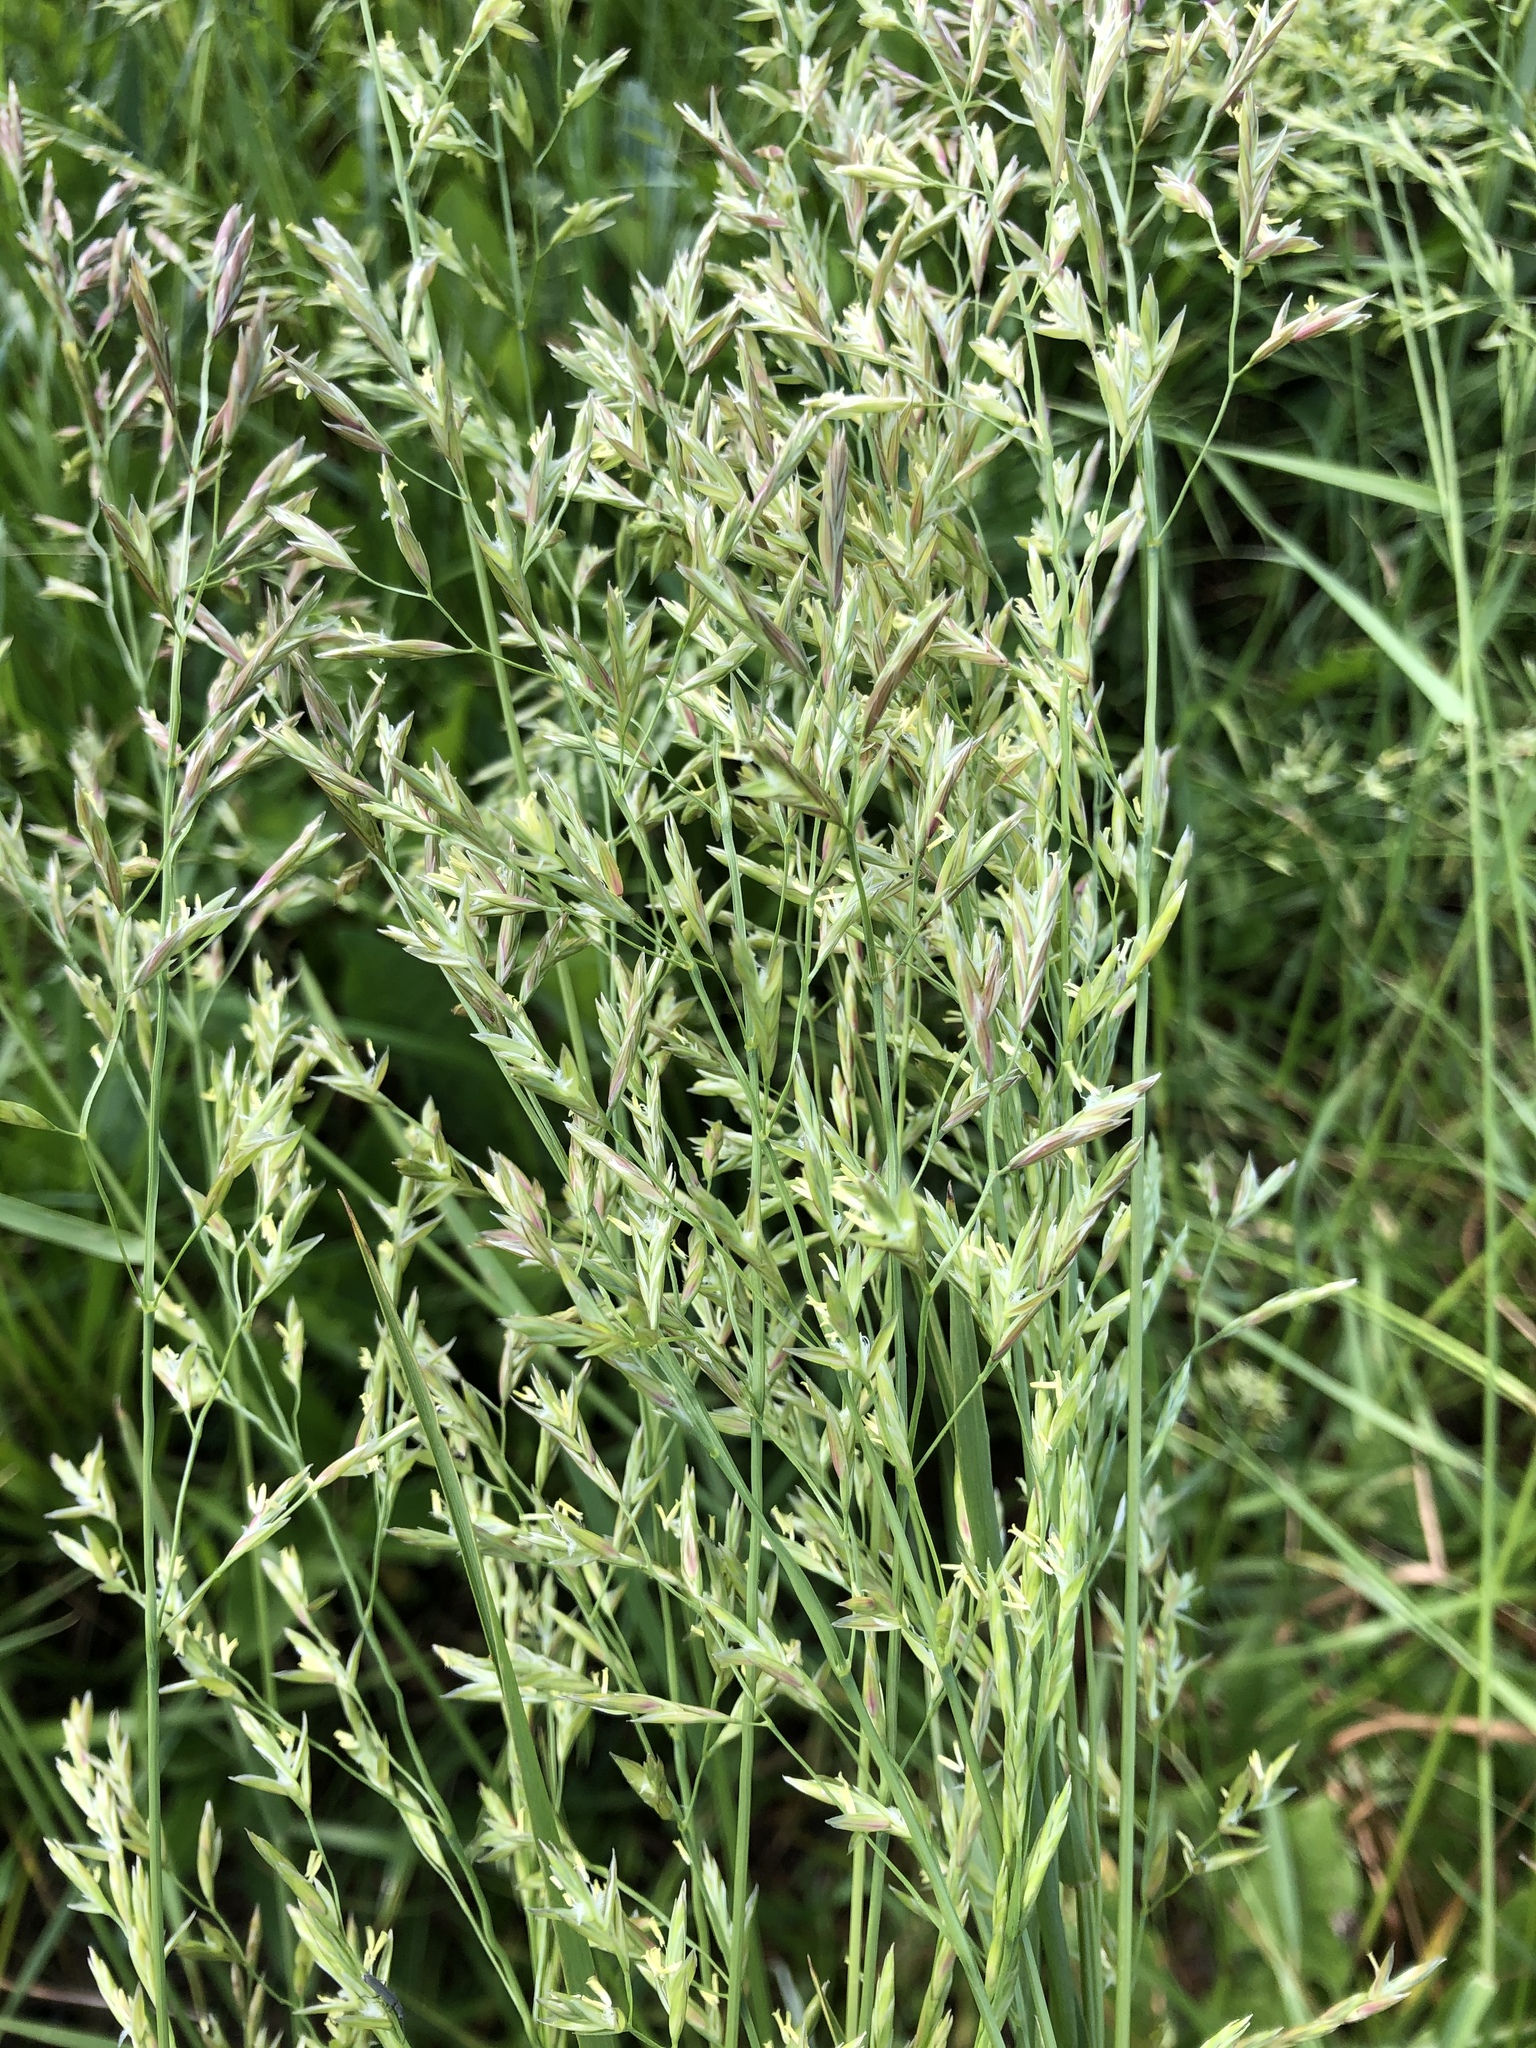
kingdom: Plantae
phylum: Tracheophyta
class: Liliopsida
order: Poales
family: Poaceae
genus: Lolium
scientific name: Lolium pratense
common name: Dover grass
